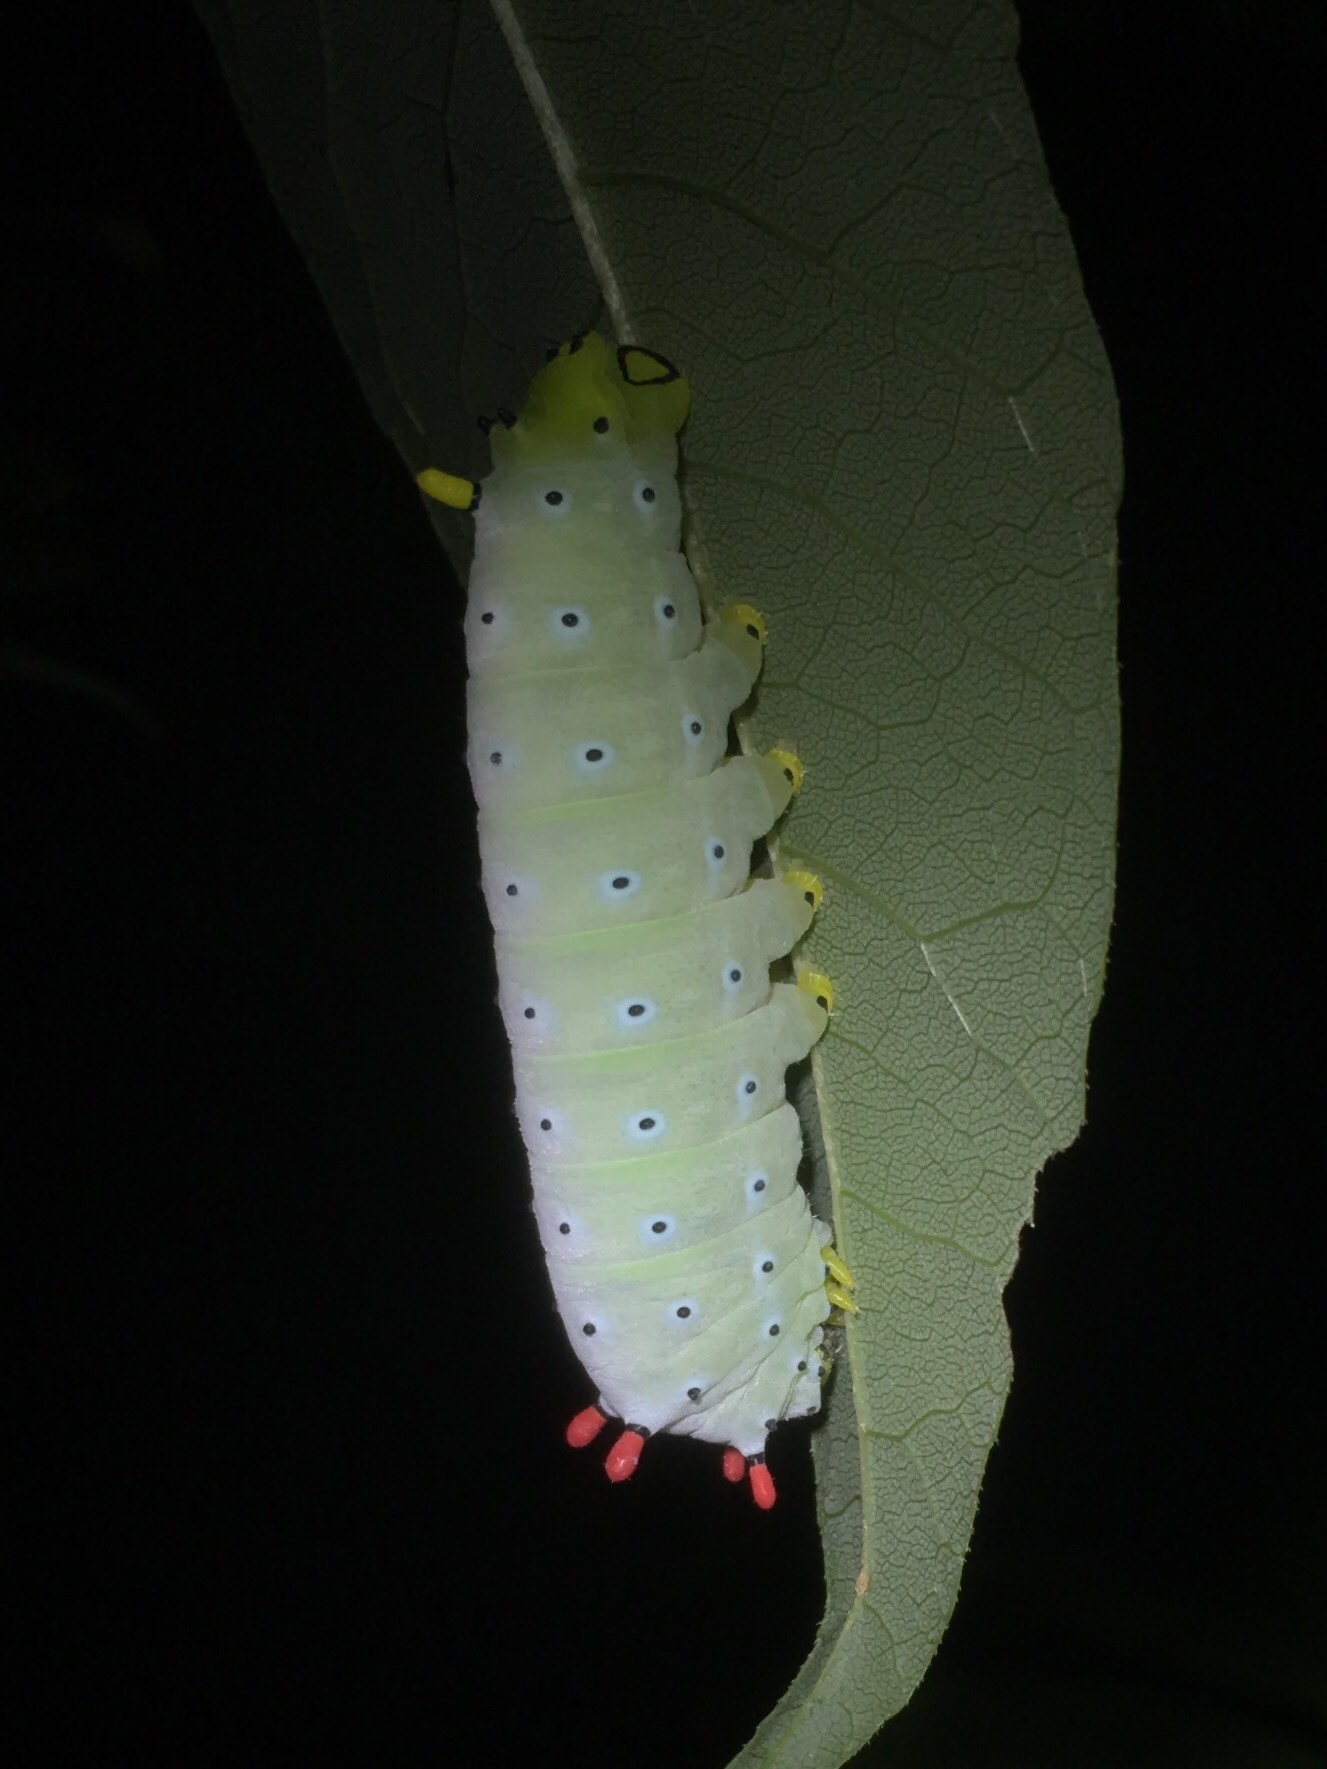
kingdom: Animalia
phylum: Arthropoda
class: Insecta
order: Lepidoptera
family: Saturniidae
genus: Callosamia
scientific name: Callosamia promethea
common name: Promethea silkmoth
